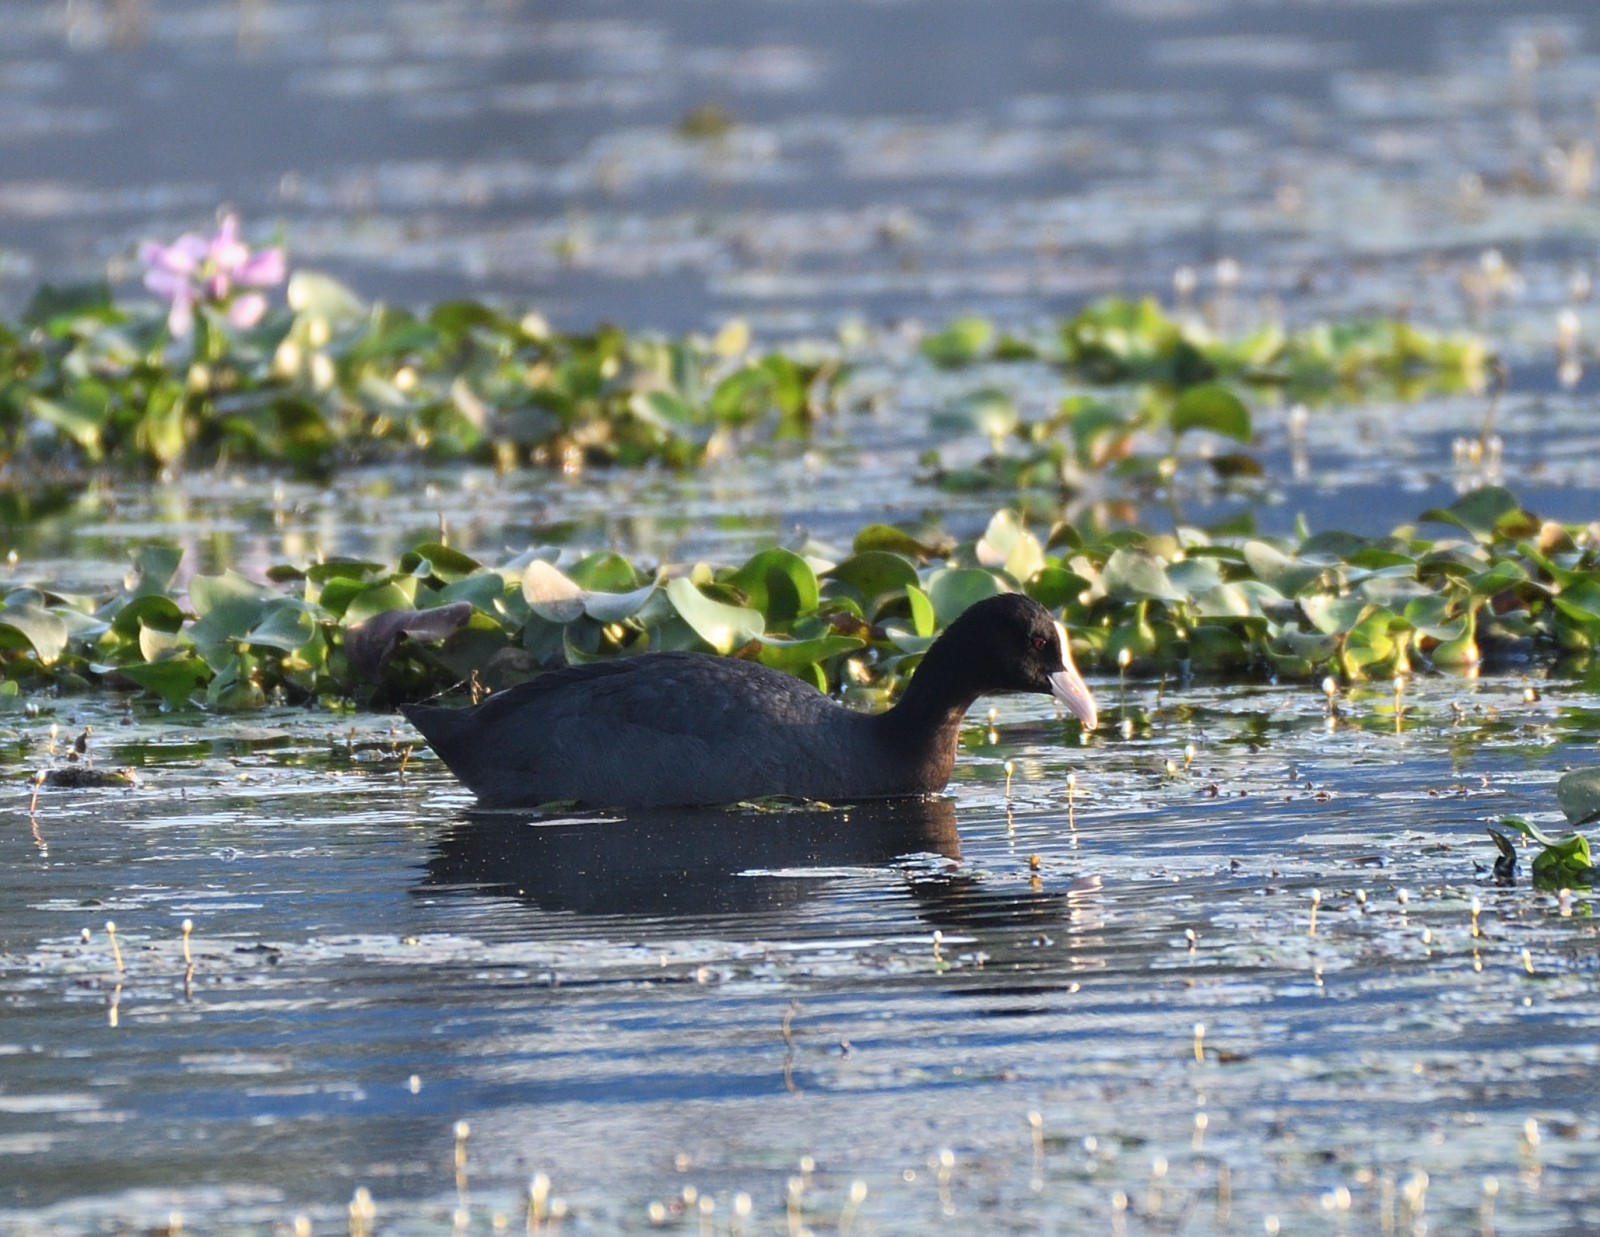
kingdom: Animalia
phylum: Chordata
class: Aves
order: Gruiformes
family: Rallidae
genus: Fulica
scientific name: Fulica atra
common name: Eurasian coot
